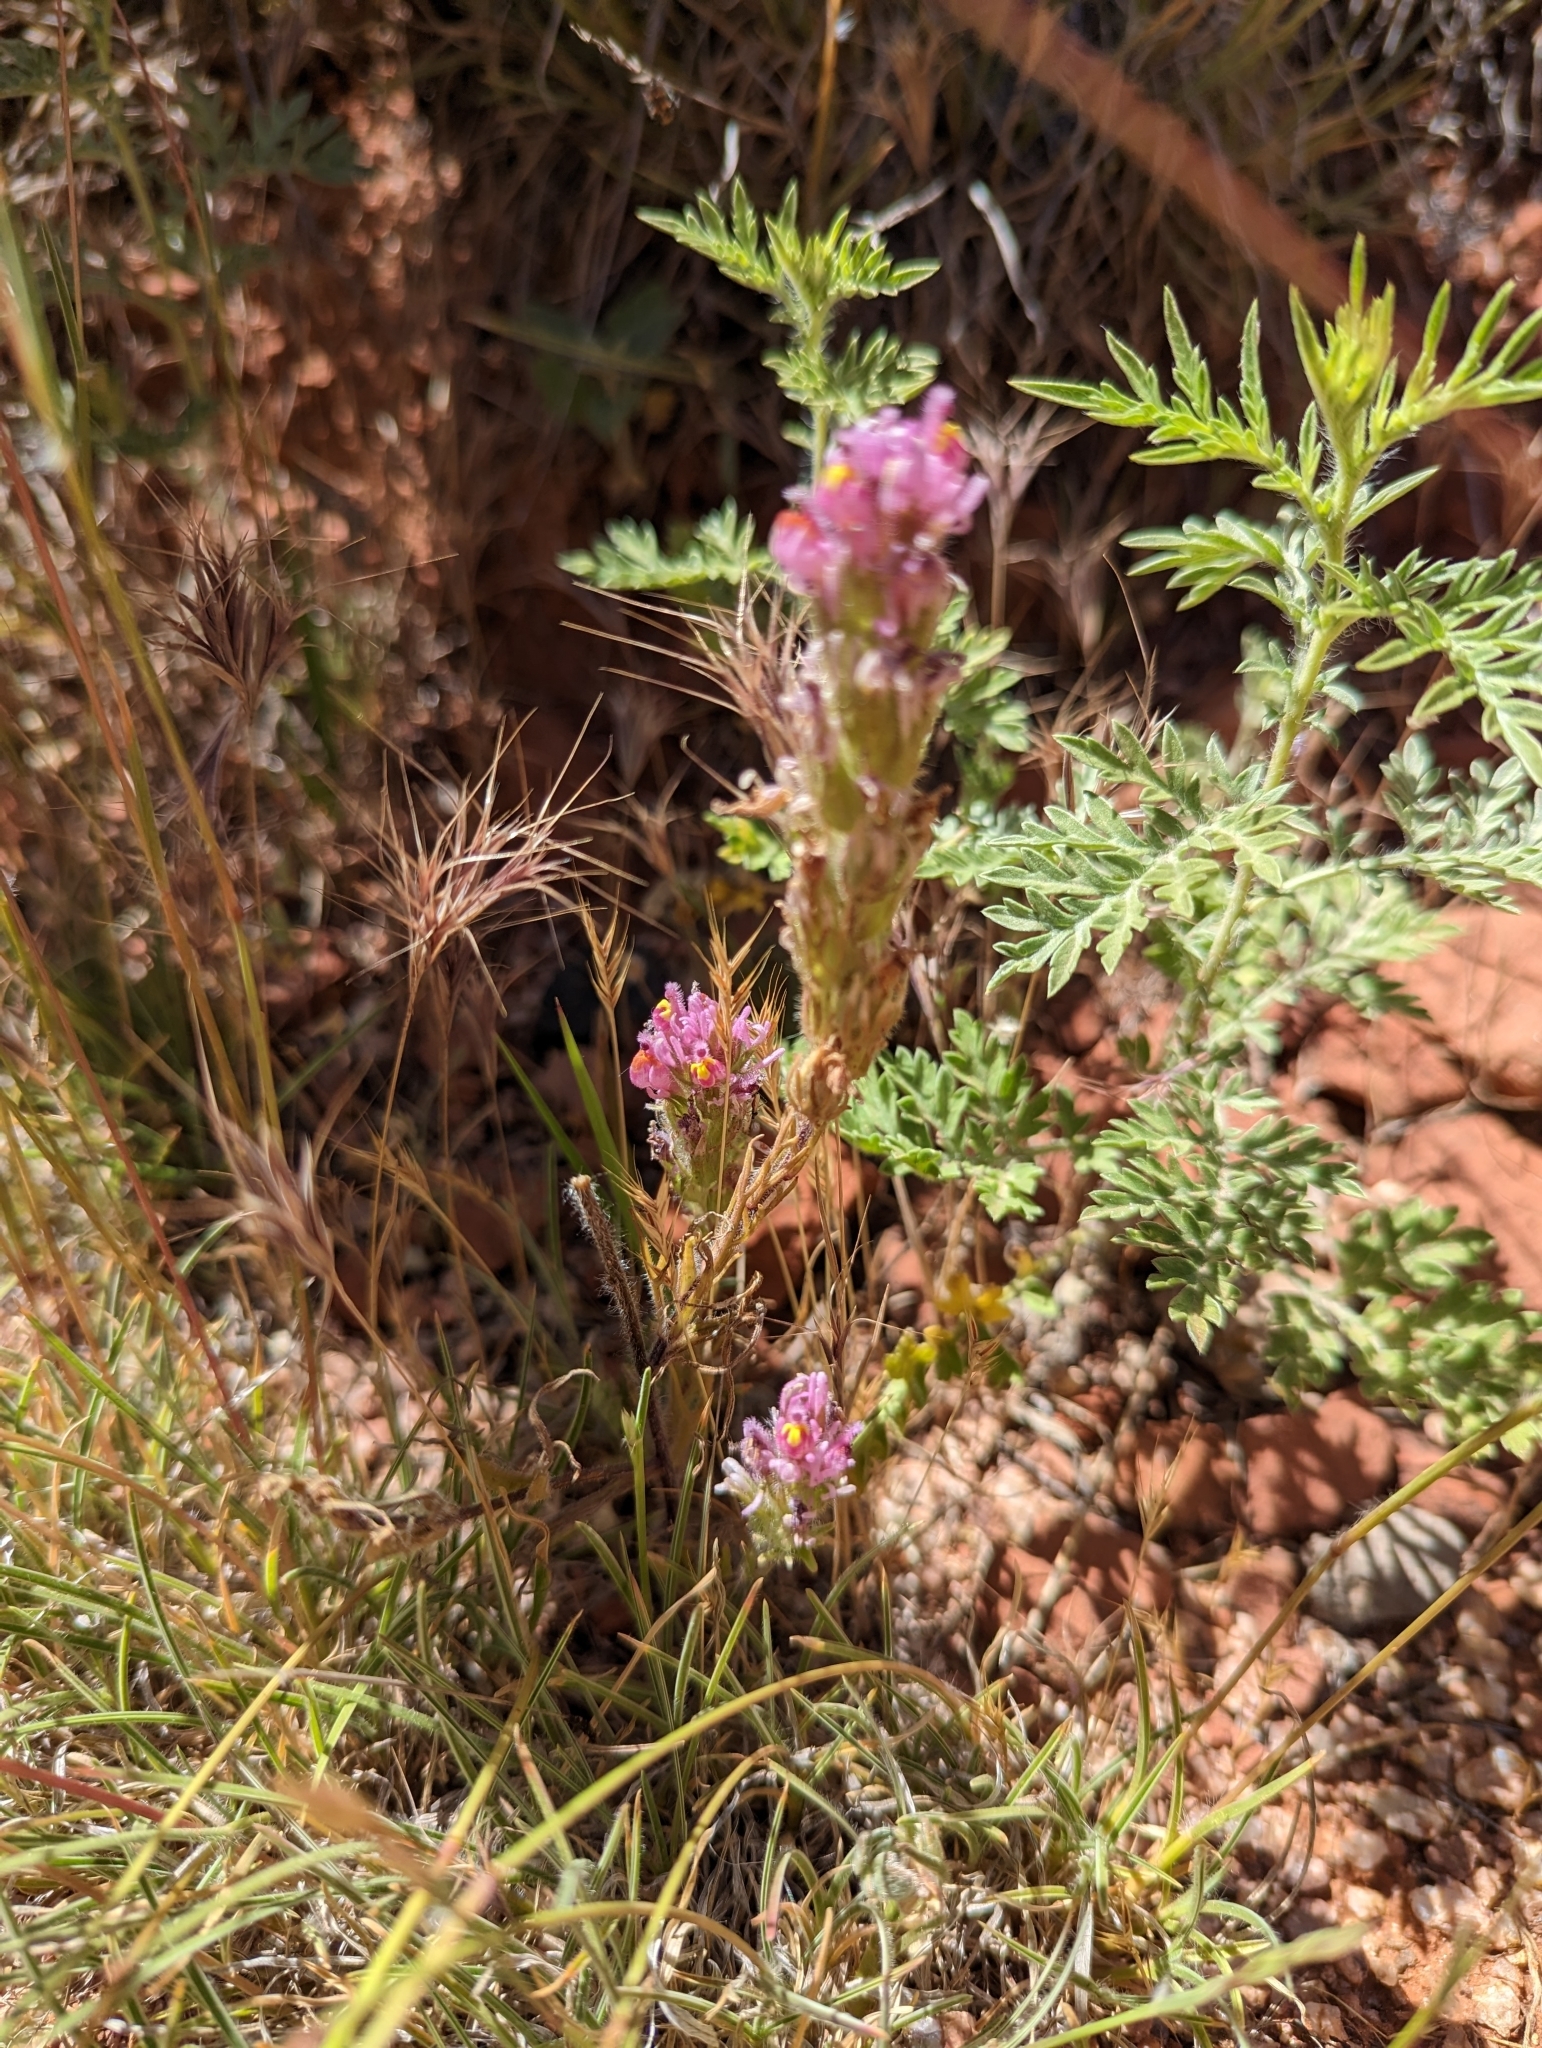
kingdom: Plantae
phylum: Tracheophyta
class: Magnoliopsida
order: Lamiales
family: Orobanchaceae
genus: Castilleja
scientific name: Castilleja exserta
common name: Purple owl-clover
